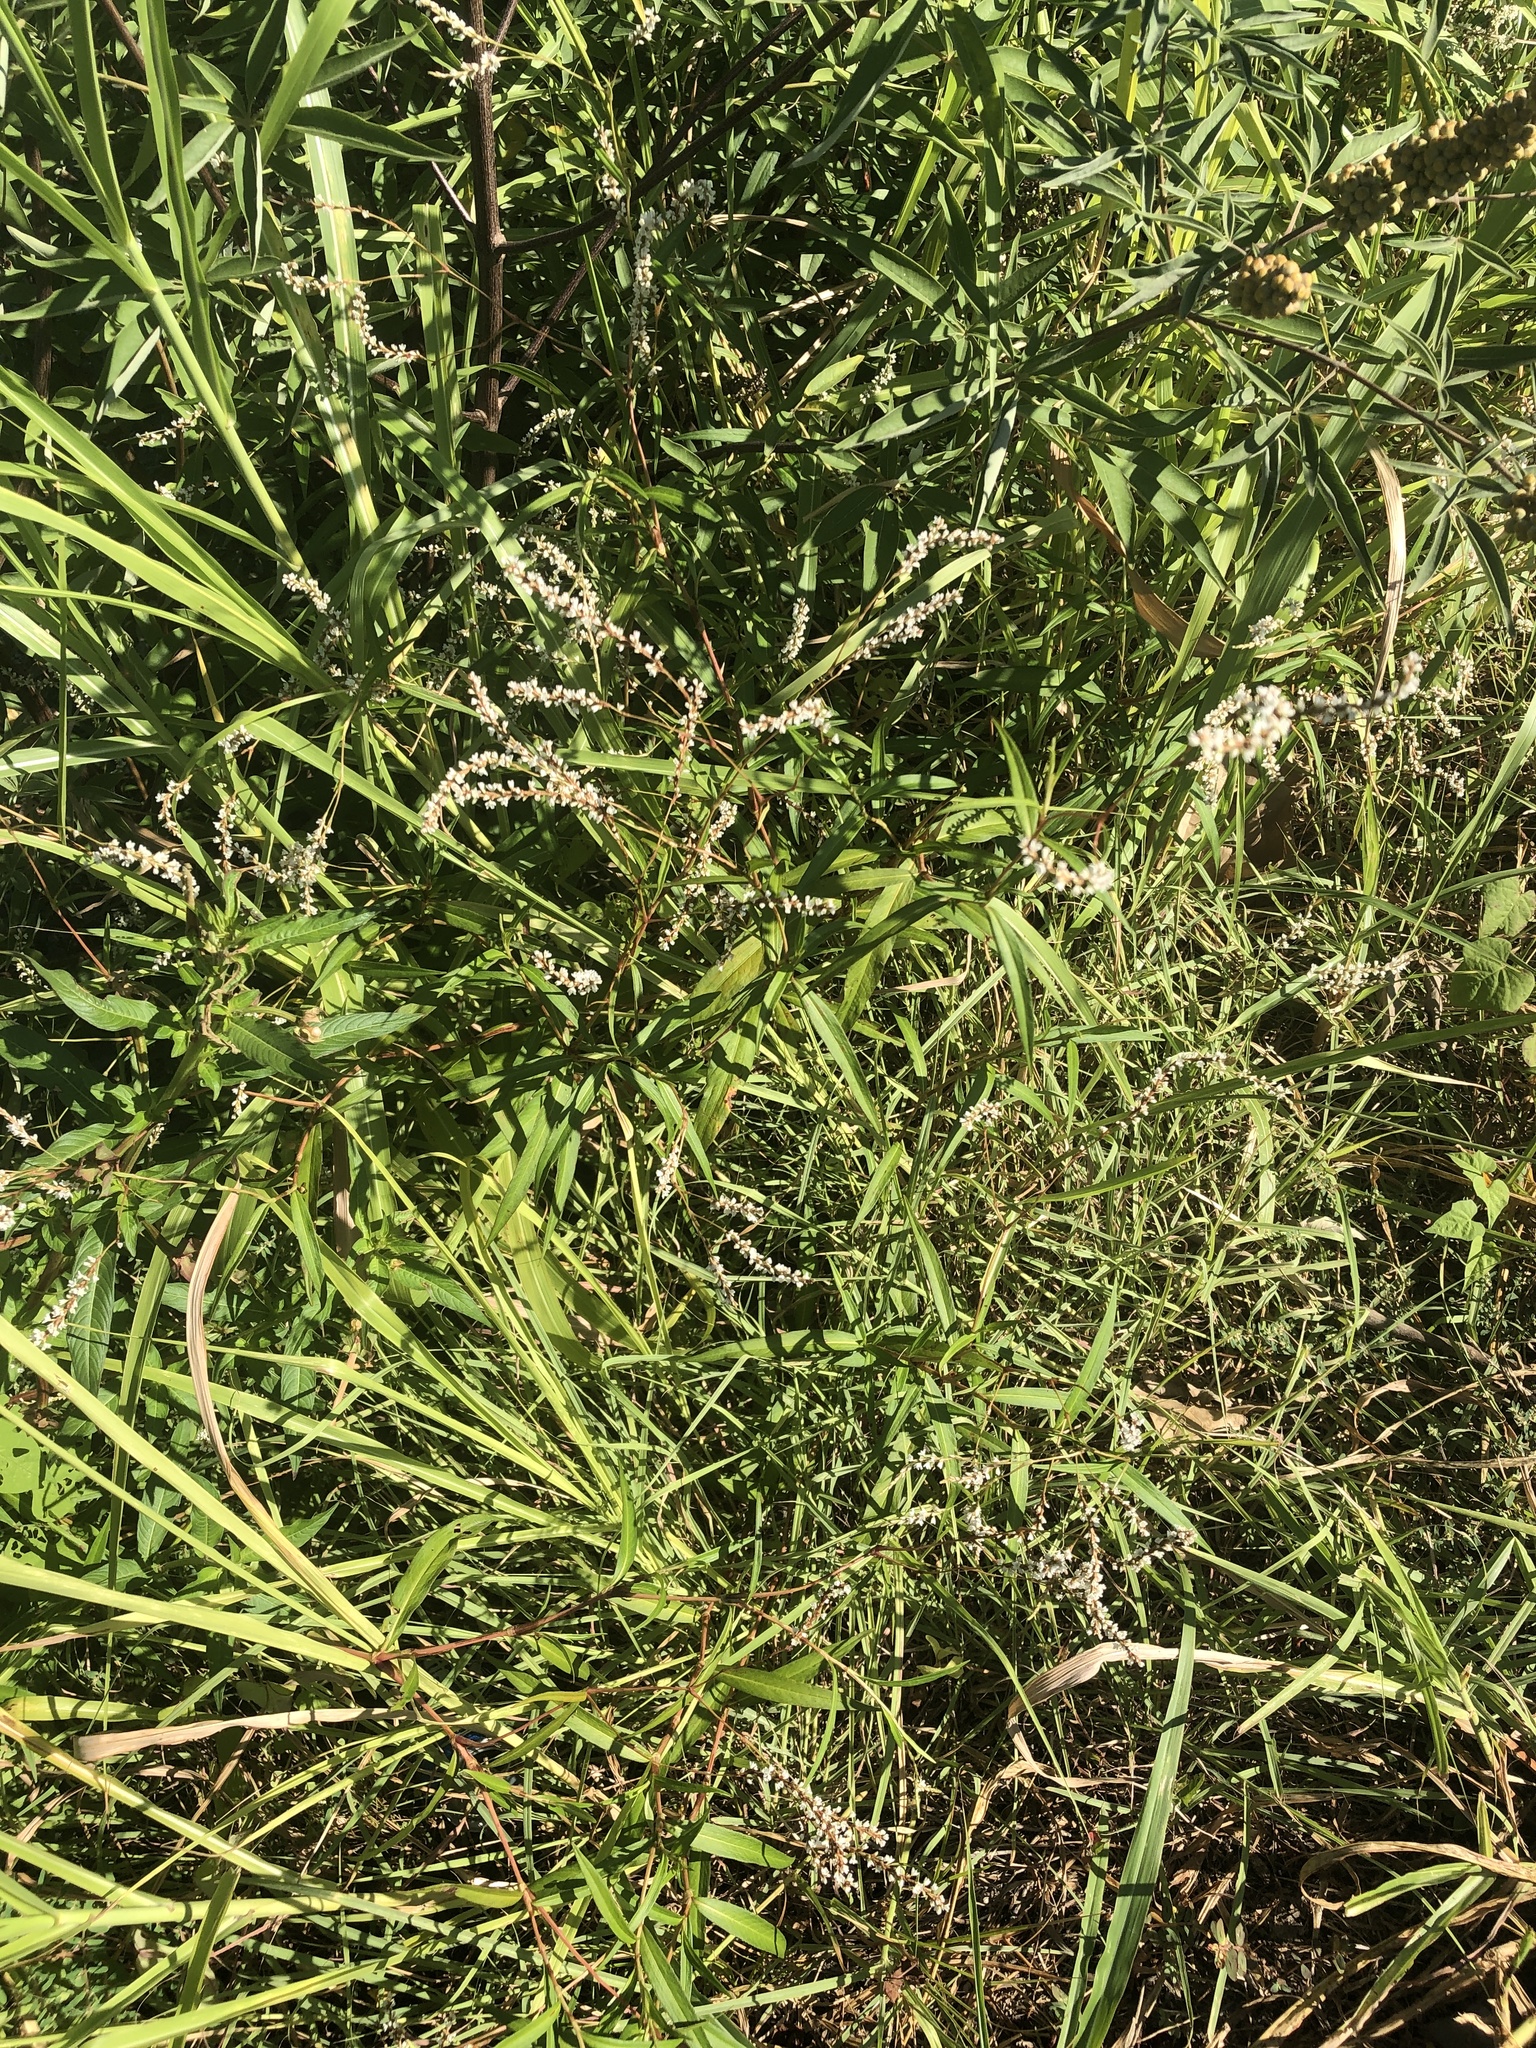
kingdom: Plantae
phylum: Tracheophyta
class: Magnoliopsida
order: Caryophyllales
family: Polygonaceae
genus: Persicaria
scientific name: Persicaria hydropiperoides
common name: Swamp smartweed
